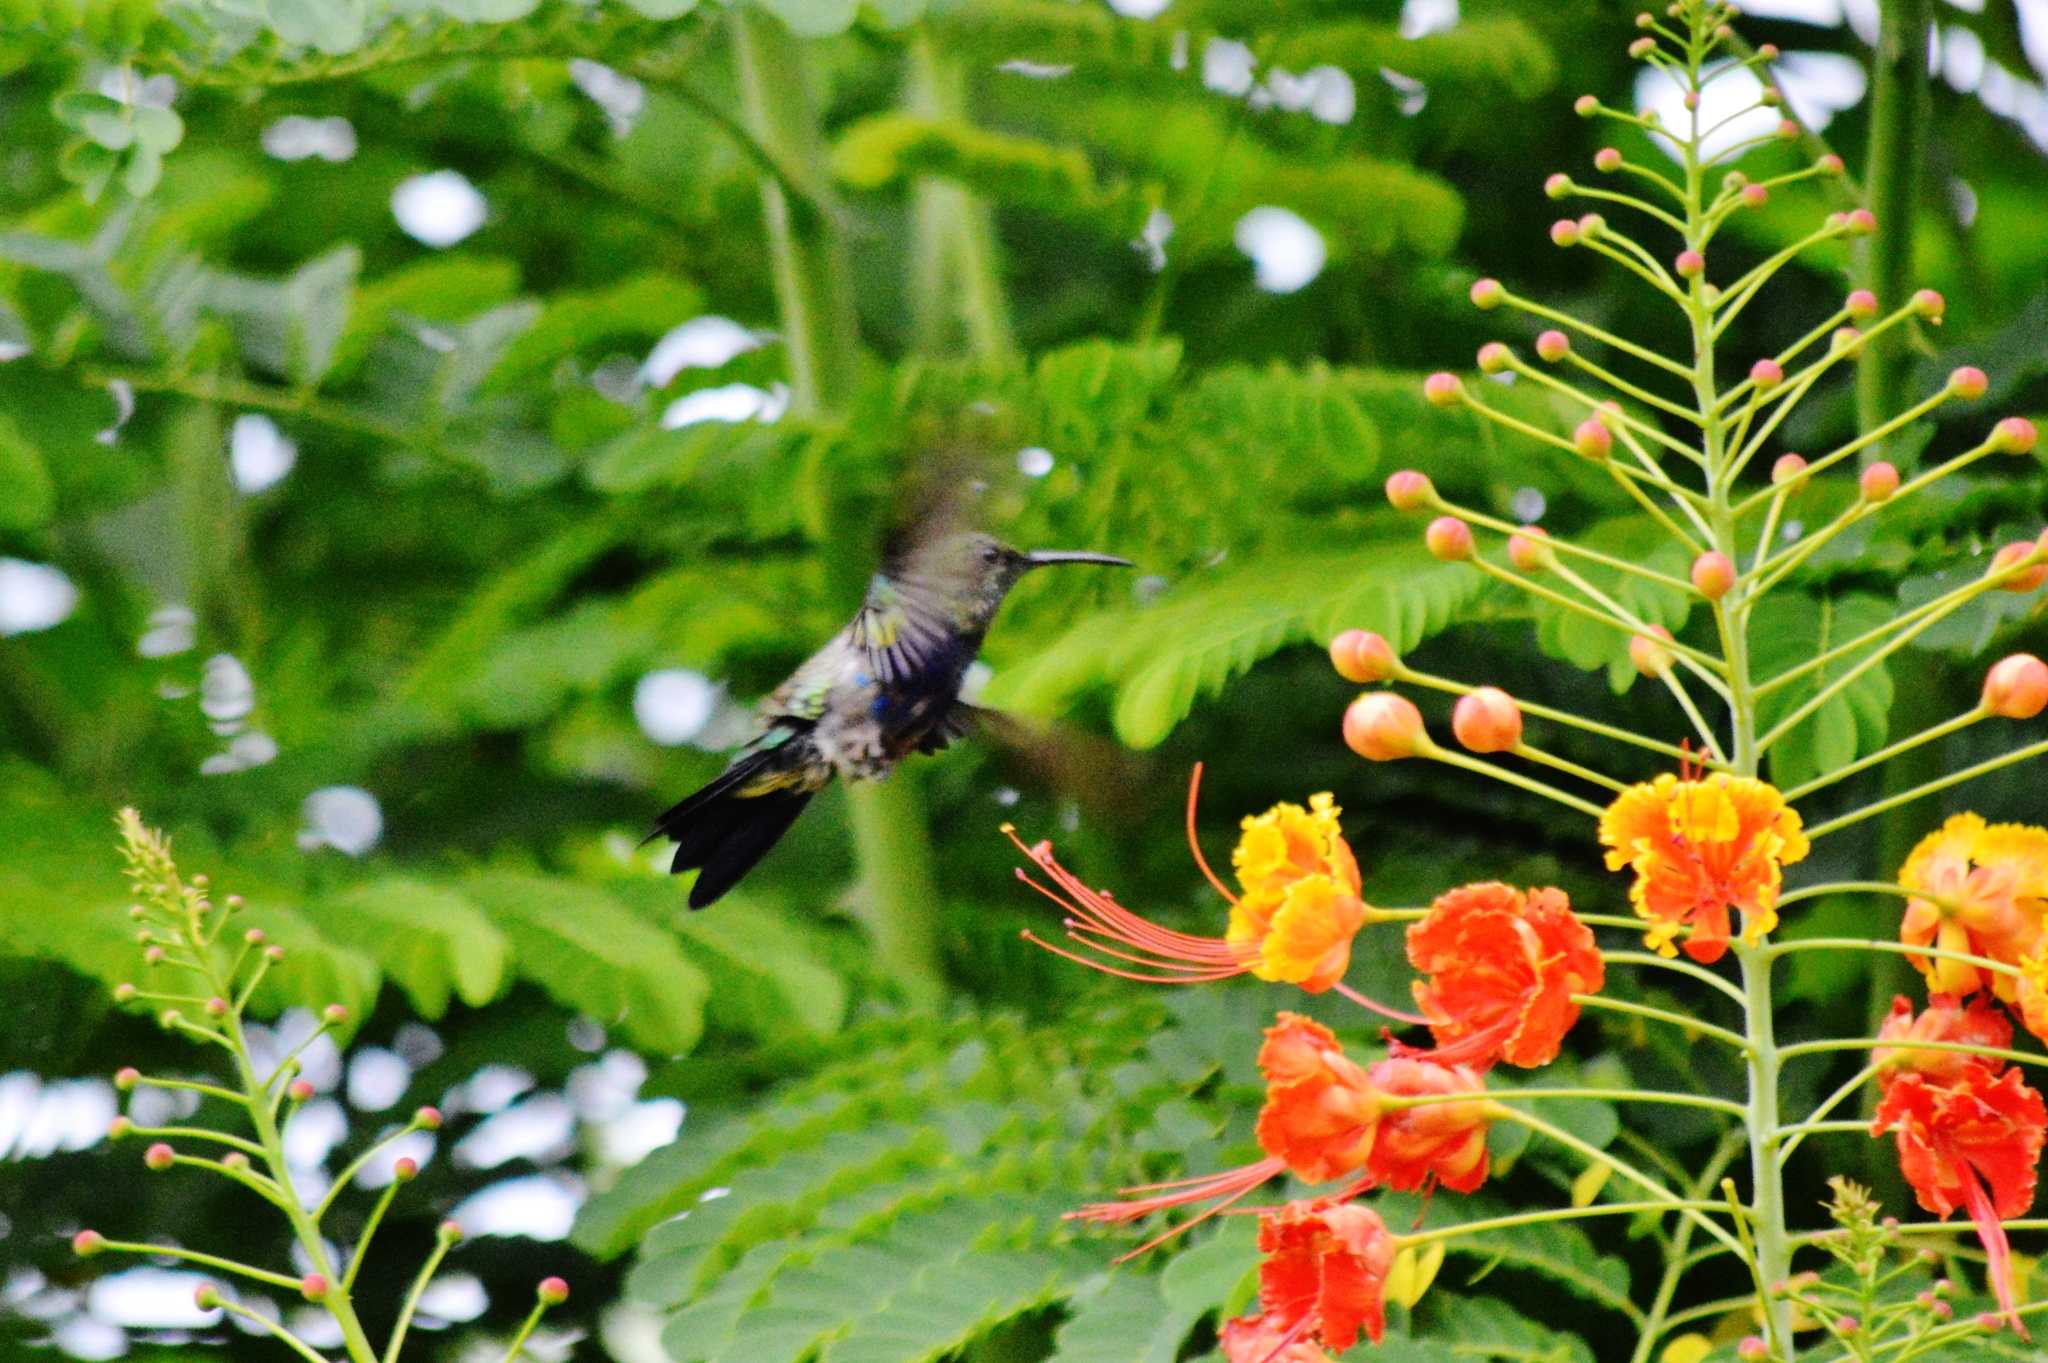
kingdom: Animalia
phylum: Chordata
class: Aves
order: Apodiformes
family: Trochilidae
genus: Chionomesa
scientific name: Chionomesa fimbriata
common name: Glittering-throated emerald
